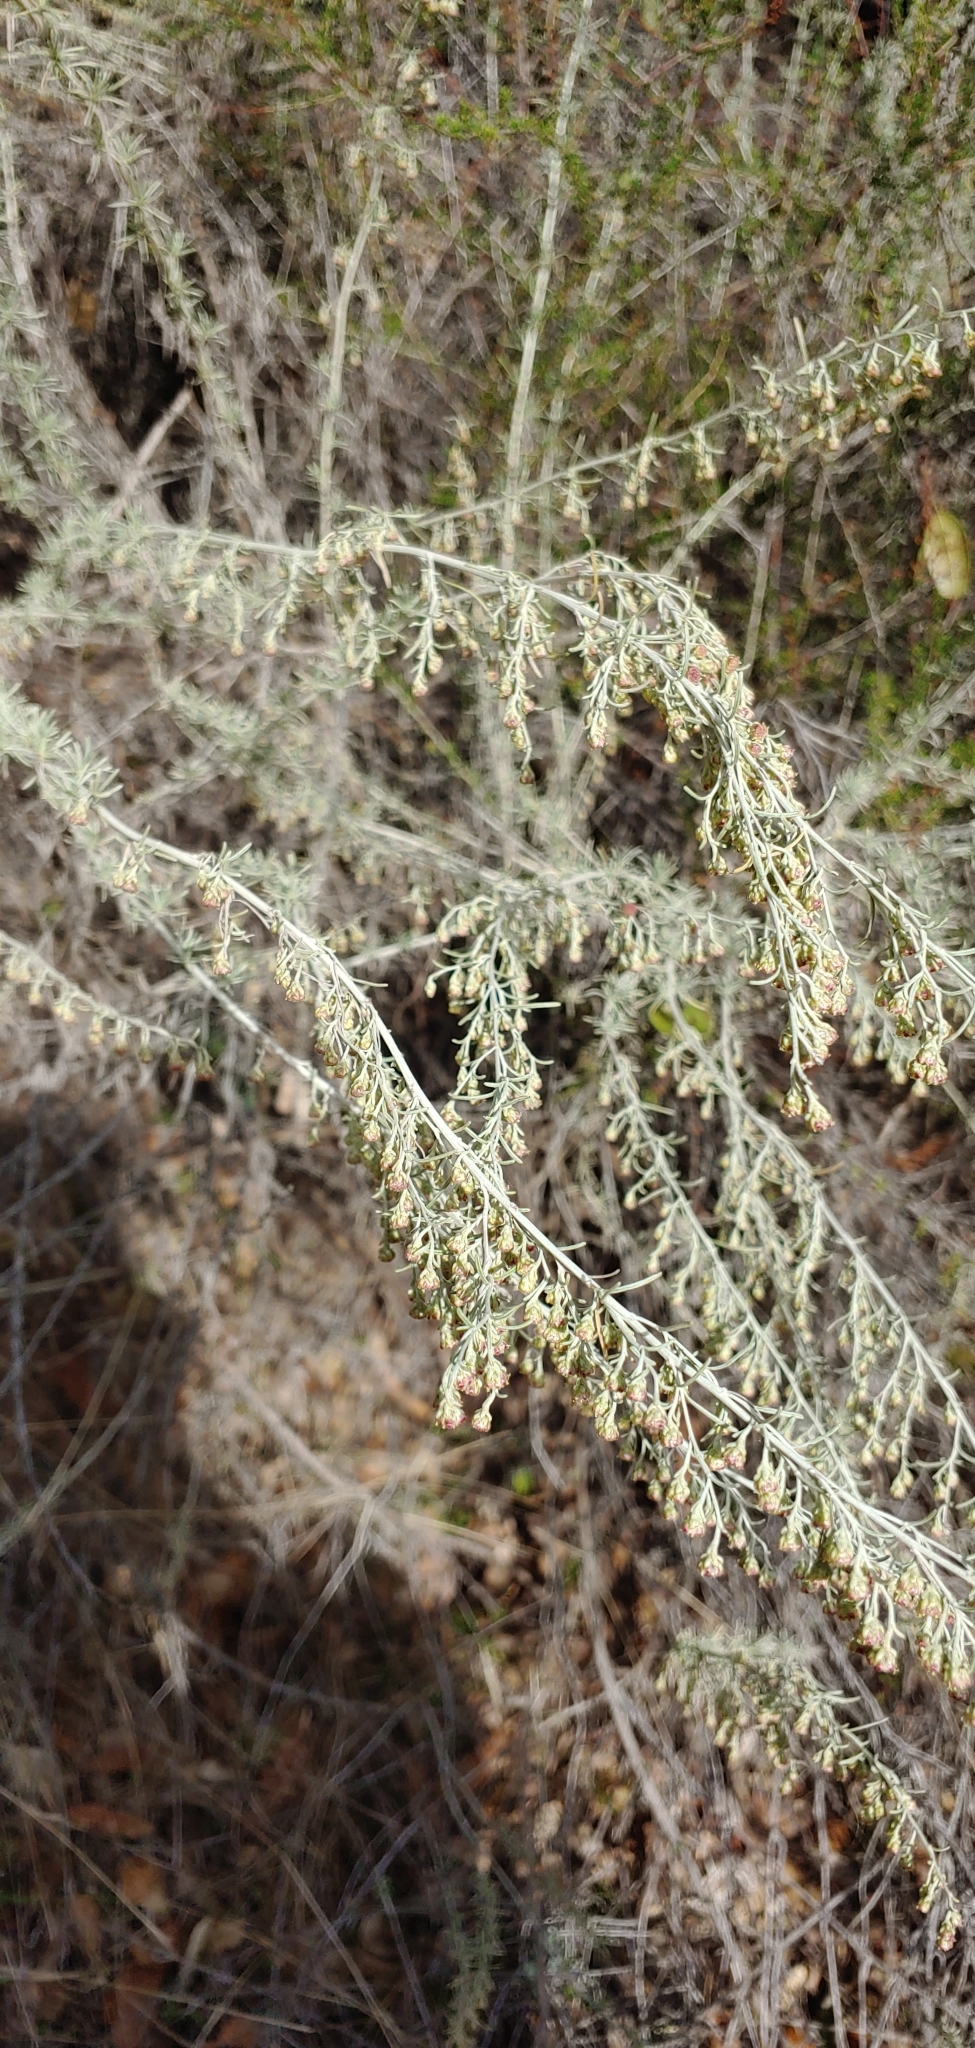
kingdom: Plantae
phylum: Tracheophyta
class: Magnoliopsida
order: Asterales
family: Asteraceae
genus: Artemisia
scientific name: Artemisia californica
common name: California sagebrush
